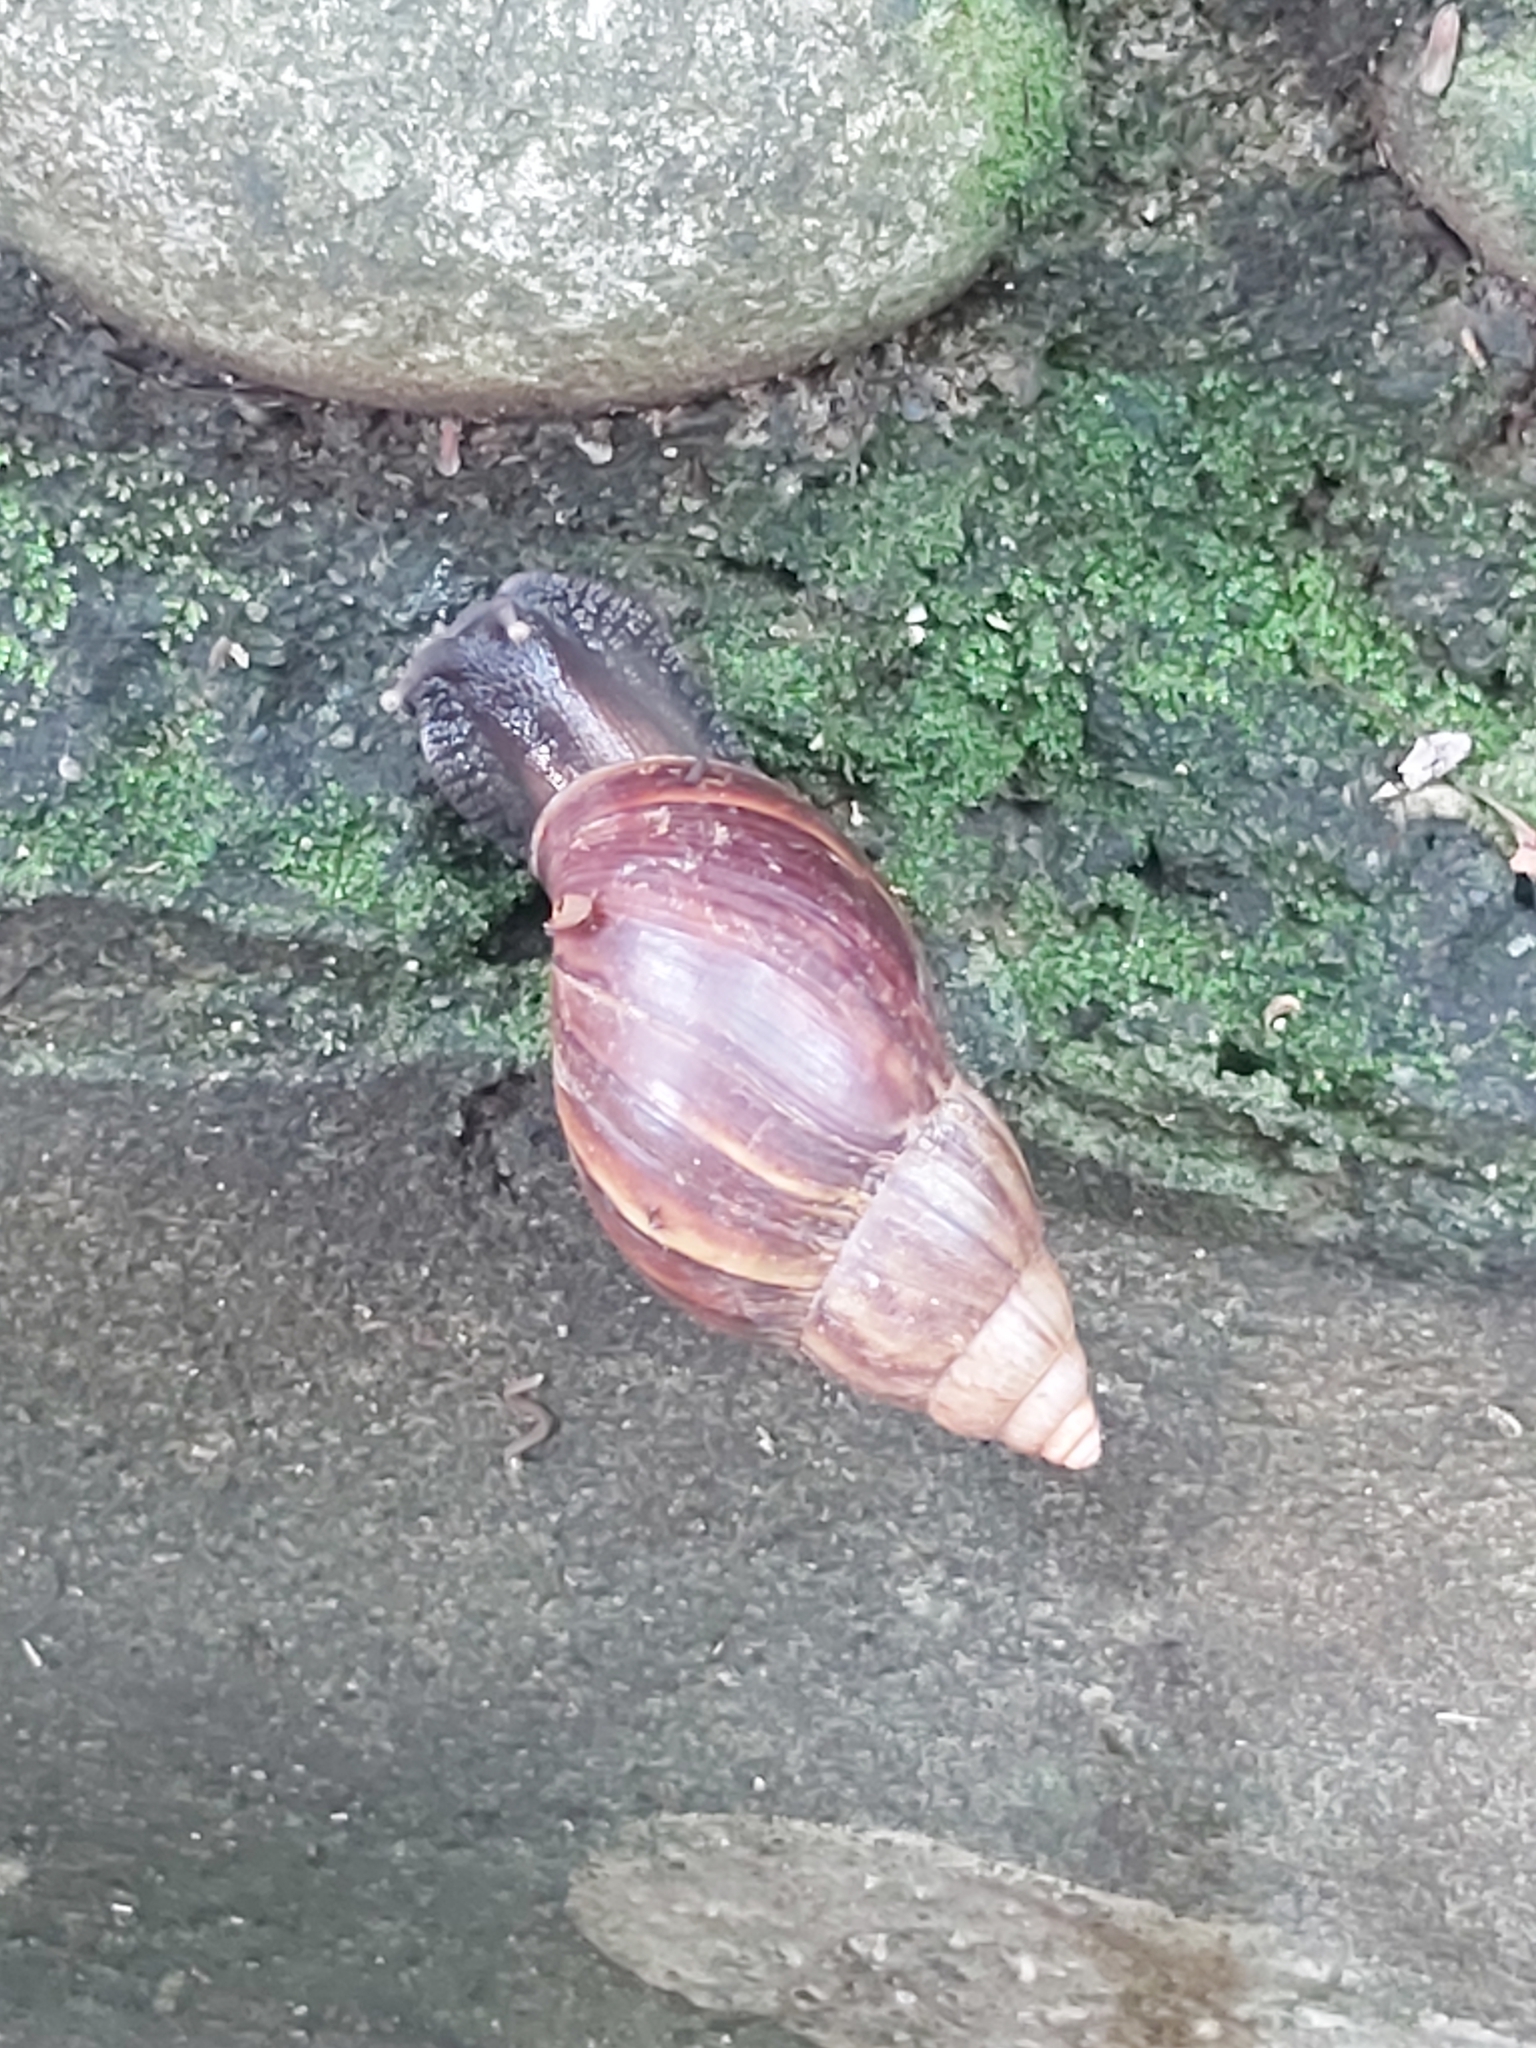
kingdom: Animalia
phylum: Mollusca
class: Gastropoda
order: Stylommatophora
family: Achatinidae
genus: Lissachatina
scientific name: Lissachatina fulica
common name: Giant african snail
